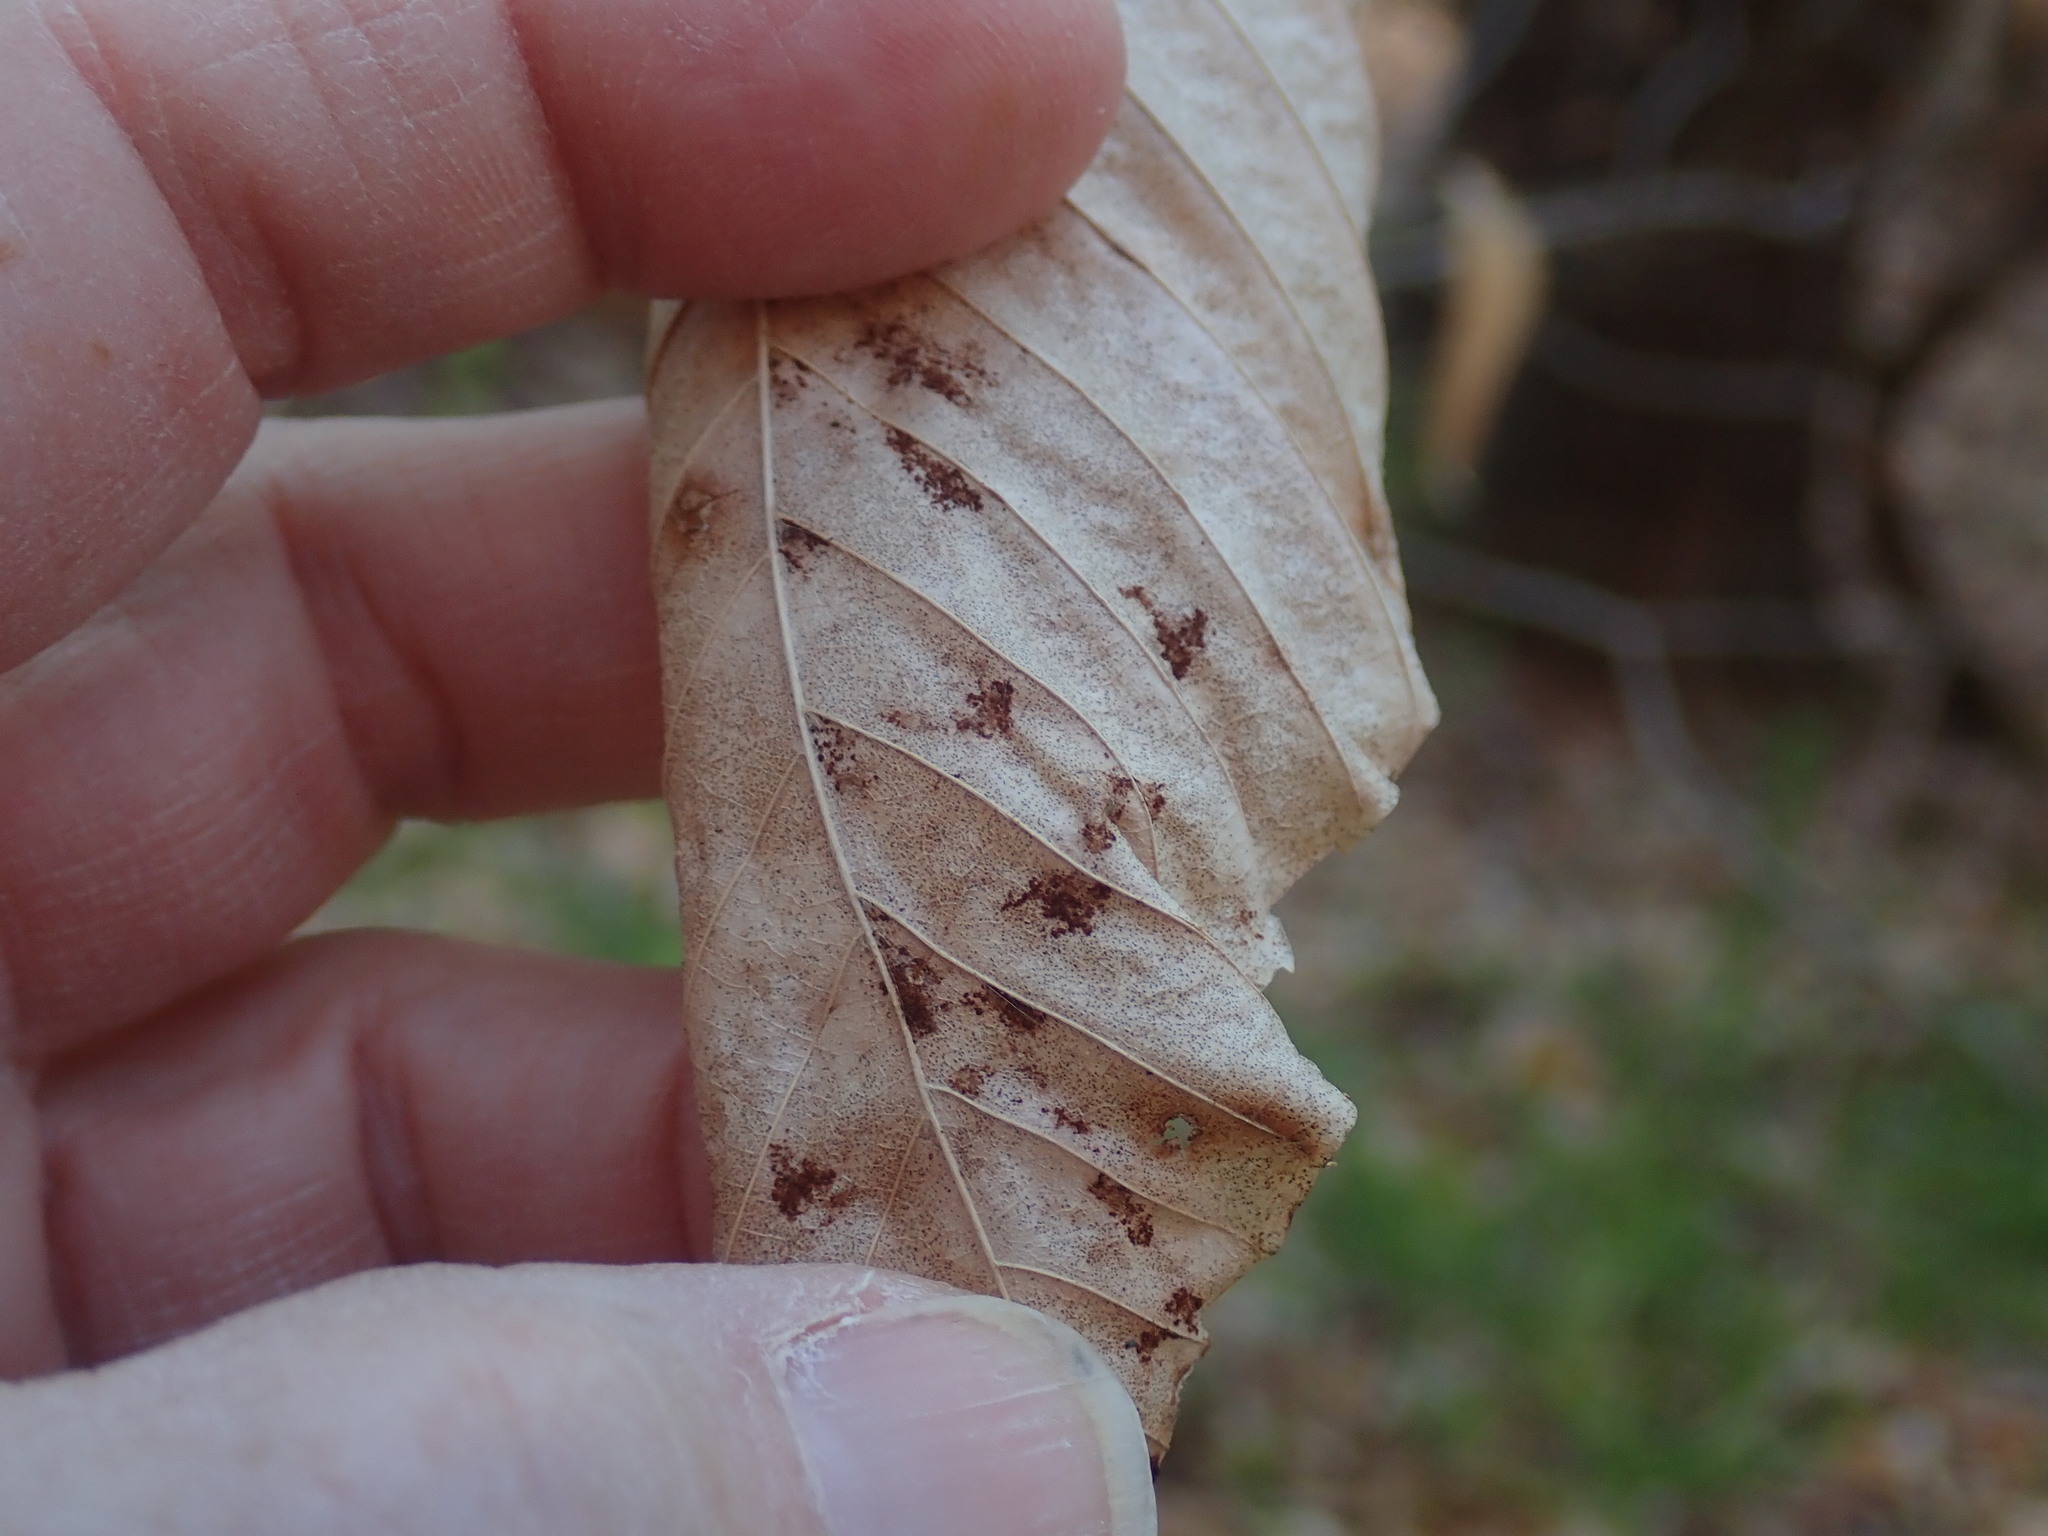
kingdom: Animalia
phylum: Arthropoda
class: Arachnida
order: Trombidiformes
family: Eriophyidae
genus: Acalitus
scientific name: Acalitus
